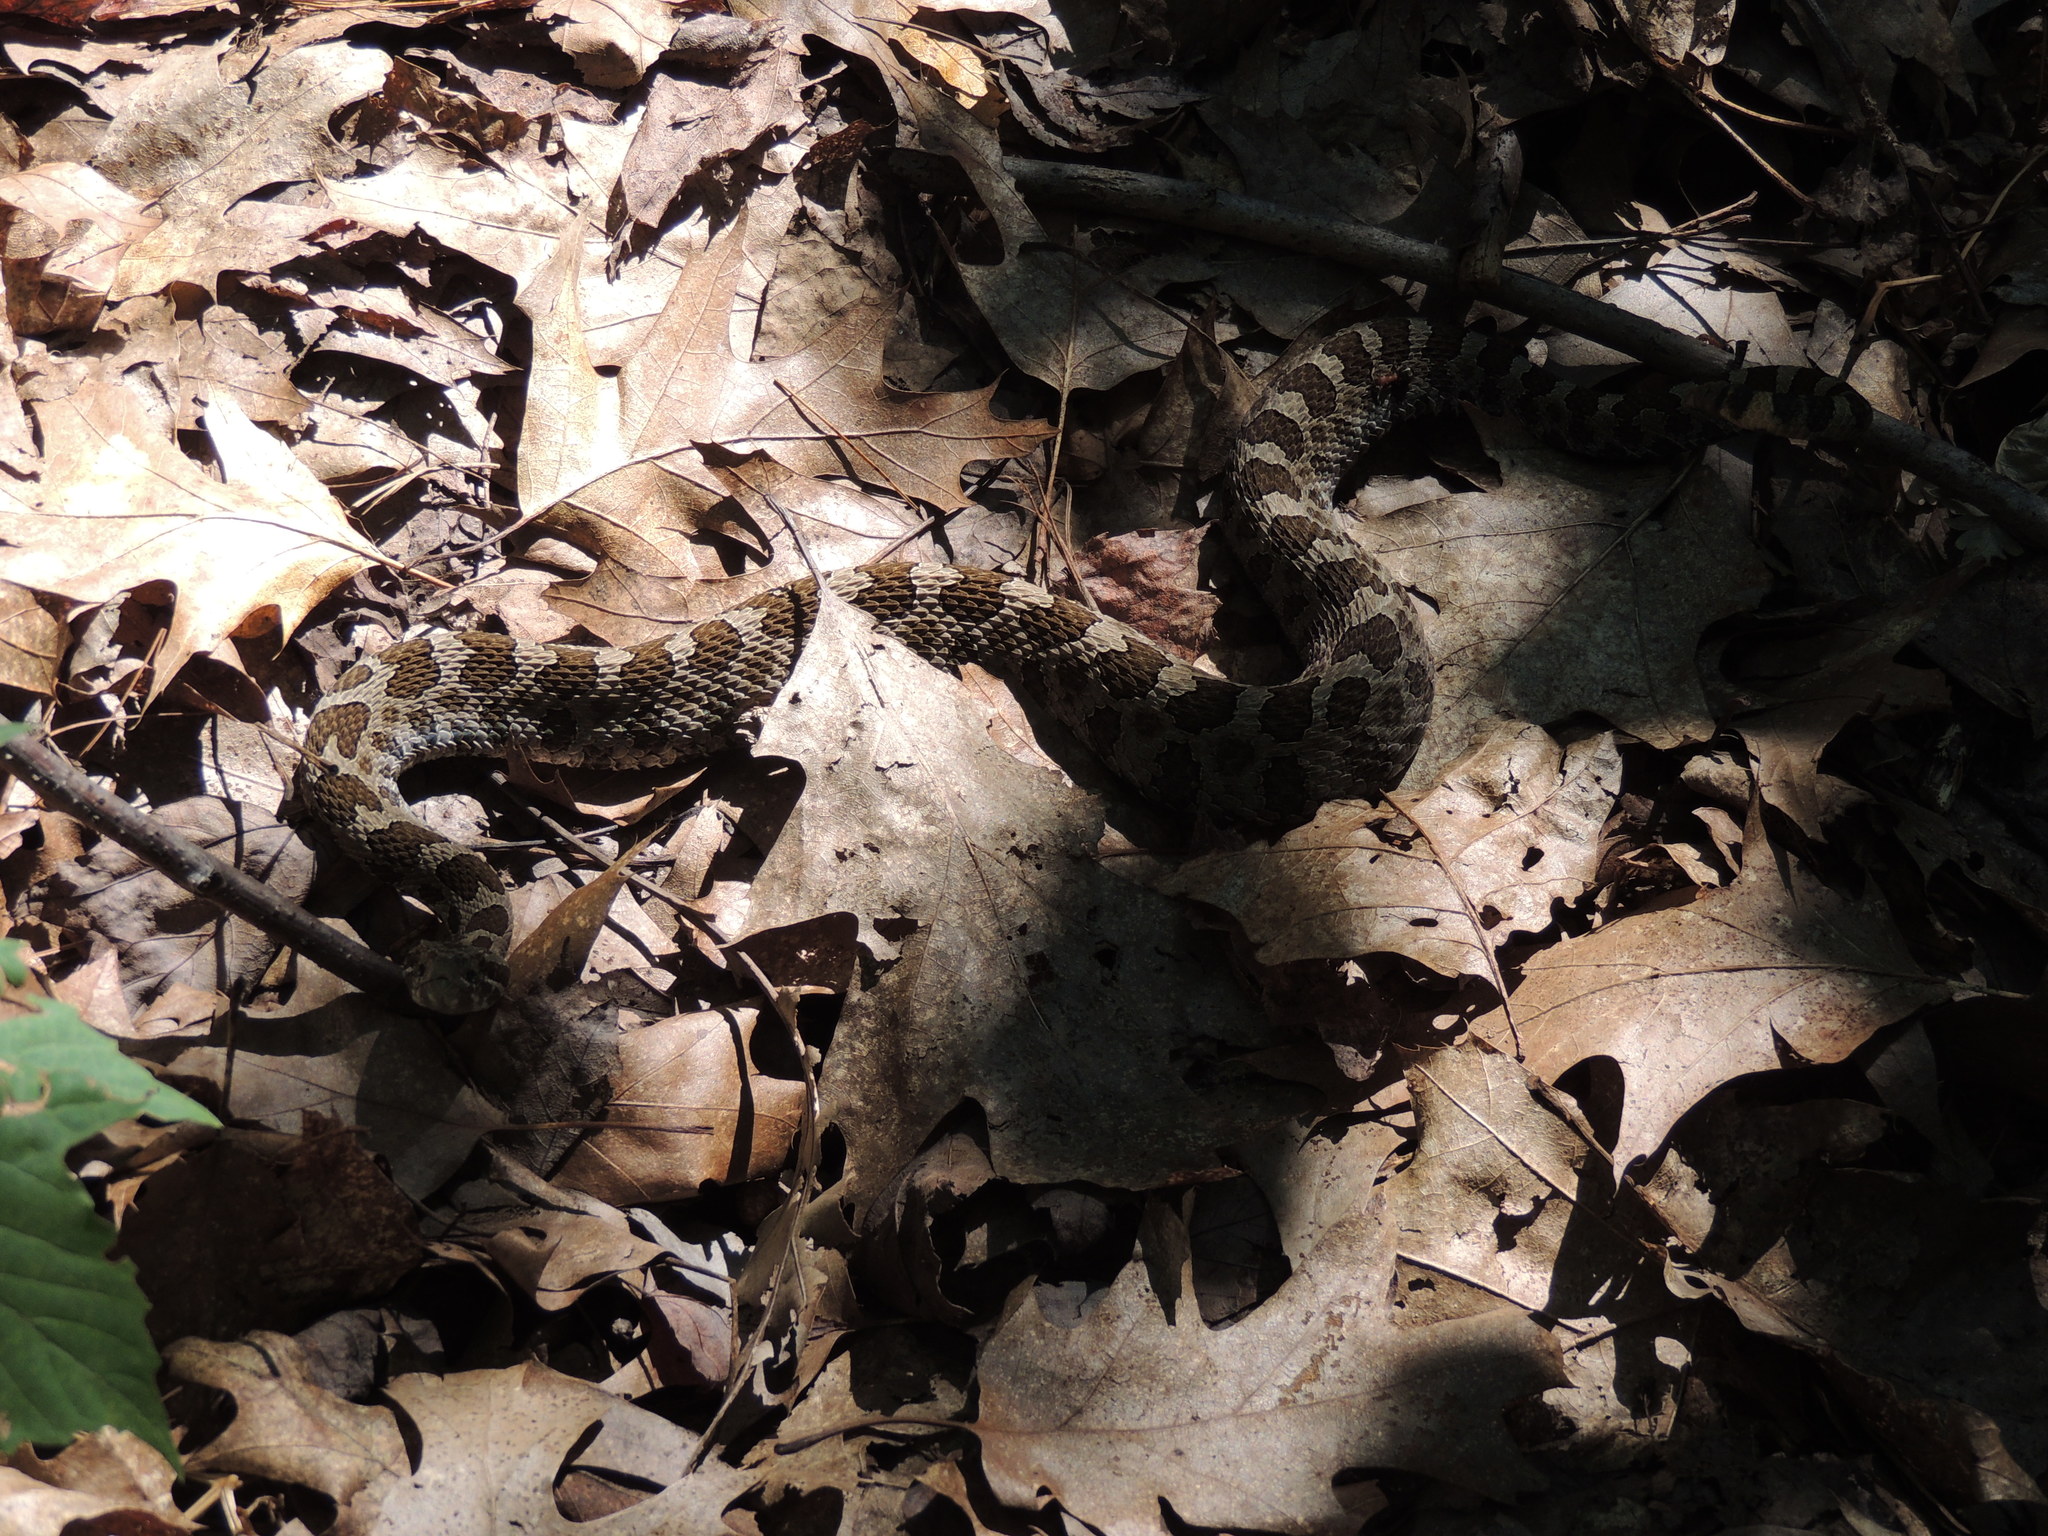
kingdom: Animalia
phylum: Chordata
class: Squamata
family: Viperidae
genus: Sistrurus
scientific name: Sistrurus catenatus
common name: Massasauga
